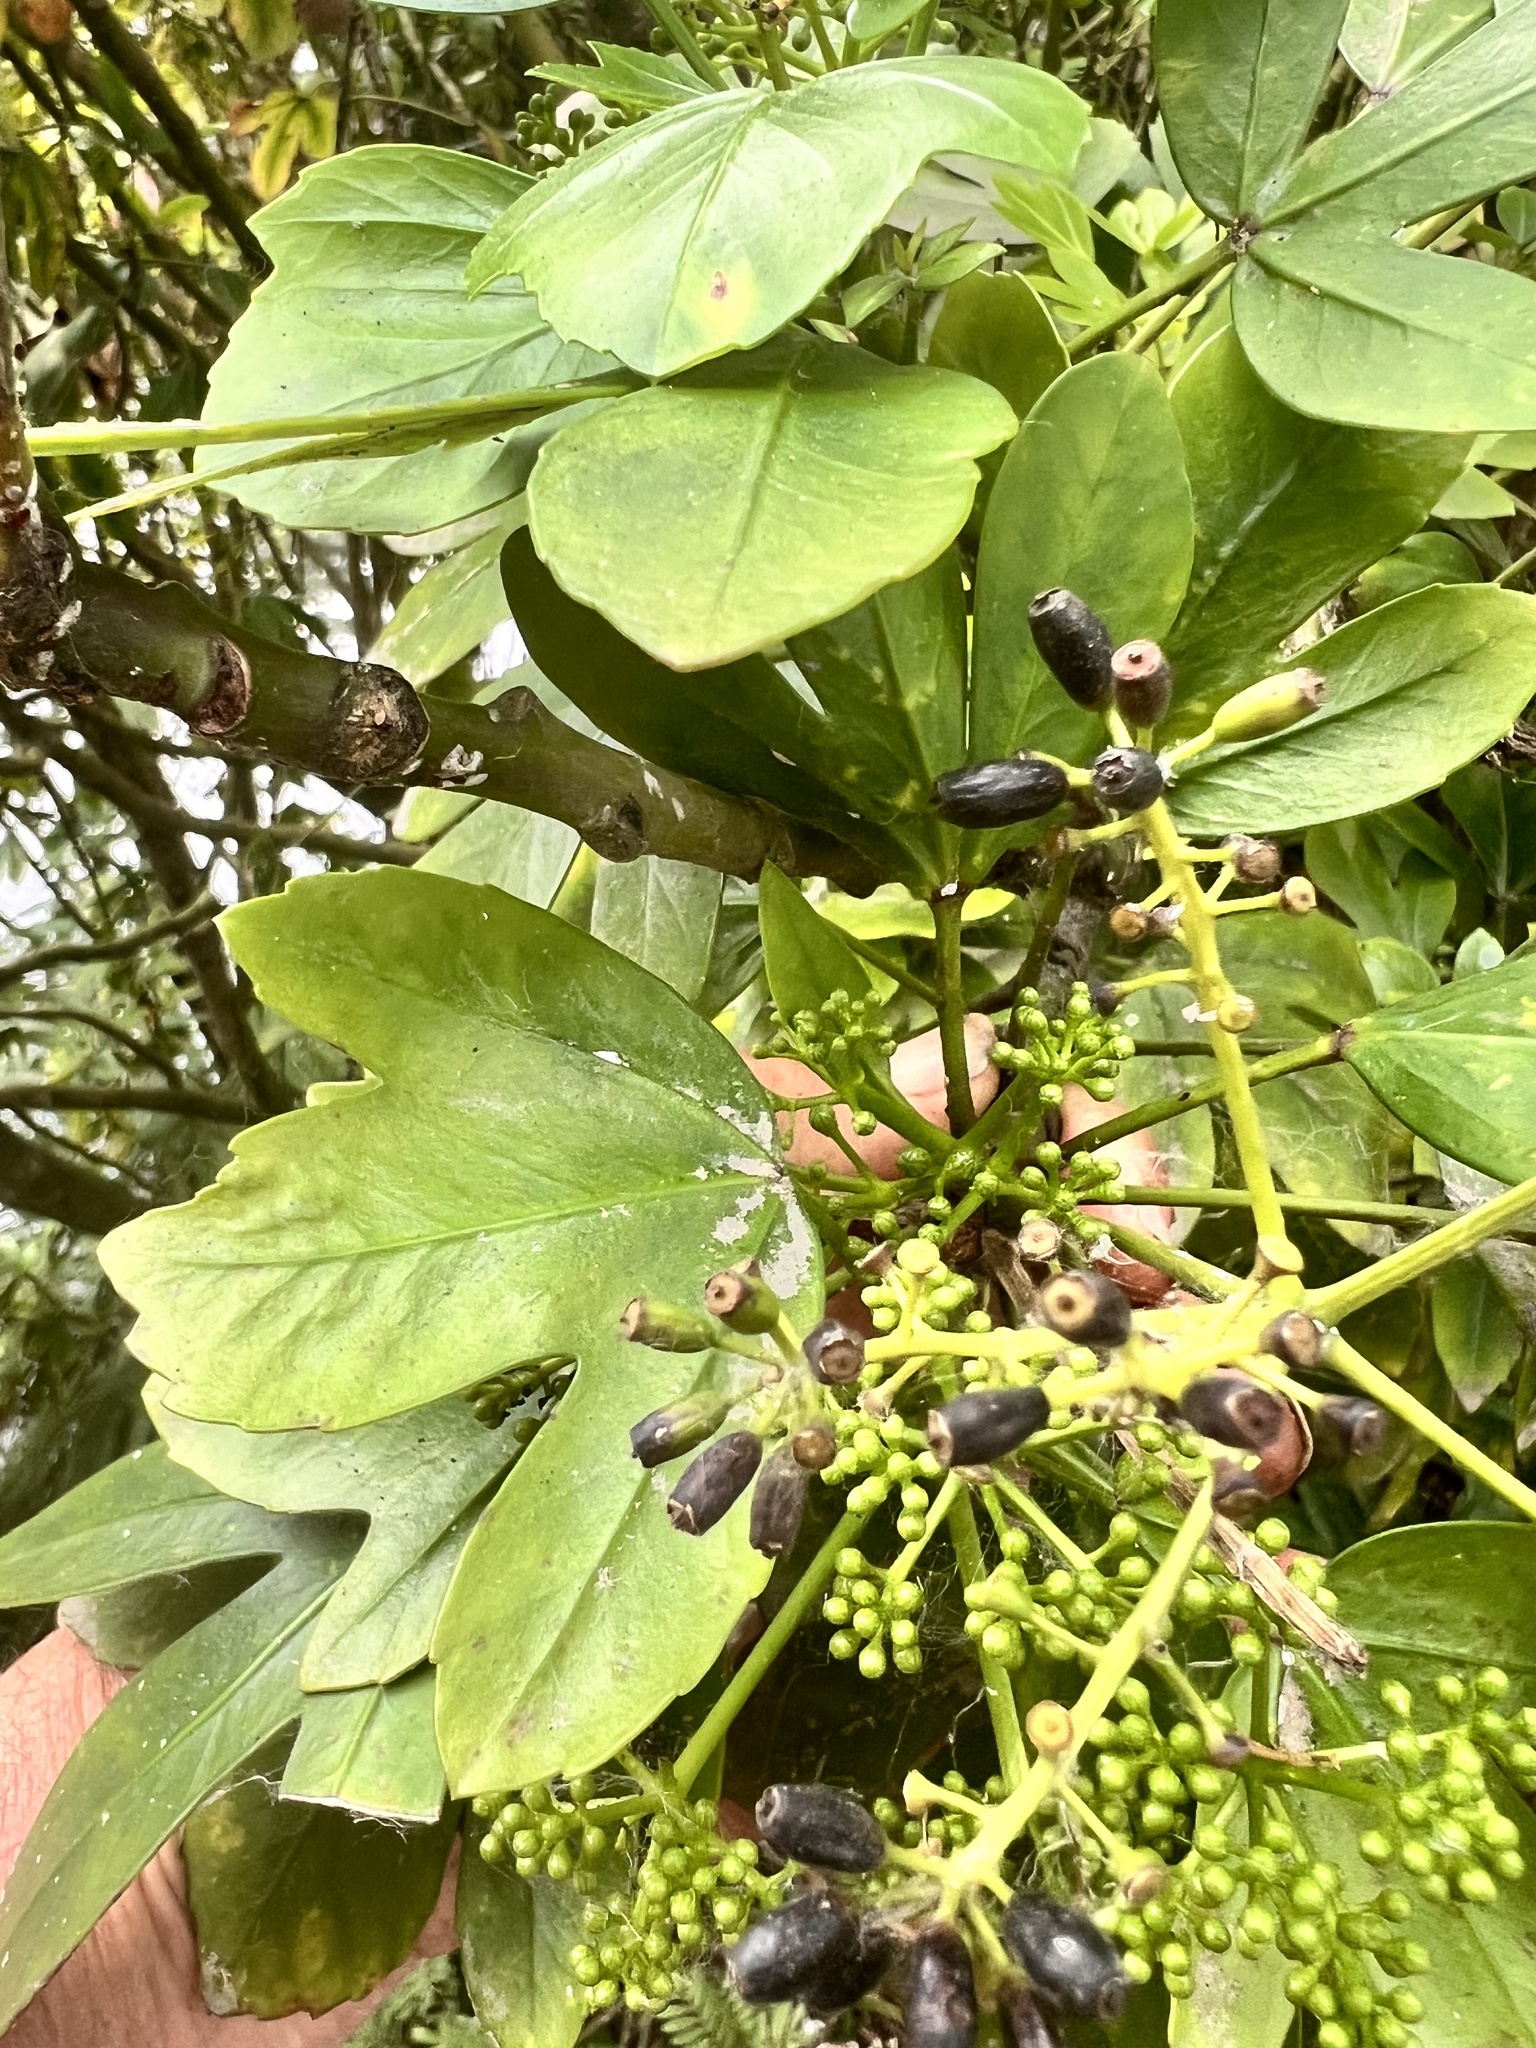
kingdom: Plantae
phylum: Tracheophyta
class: Magnoliopsida
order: Apiales
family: Araliaceae
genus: Pseudopanax
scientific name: Pseudopanax
